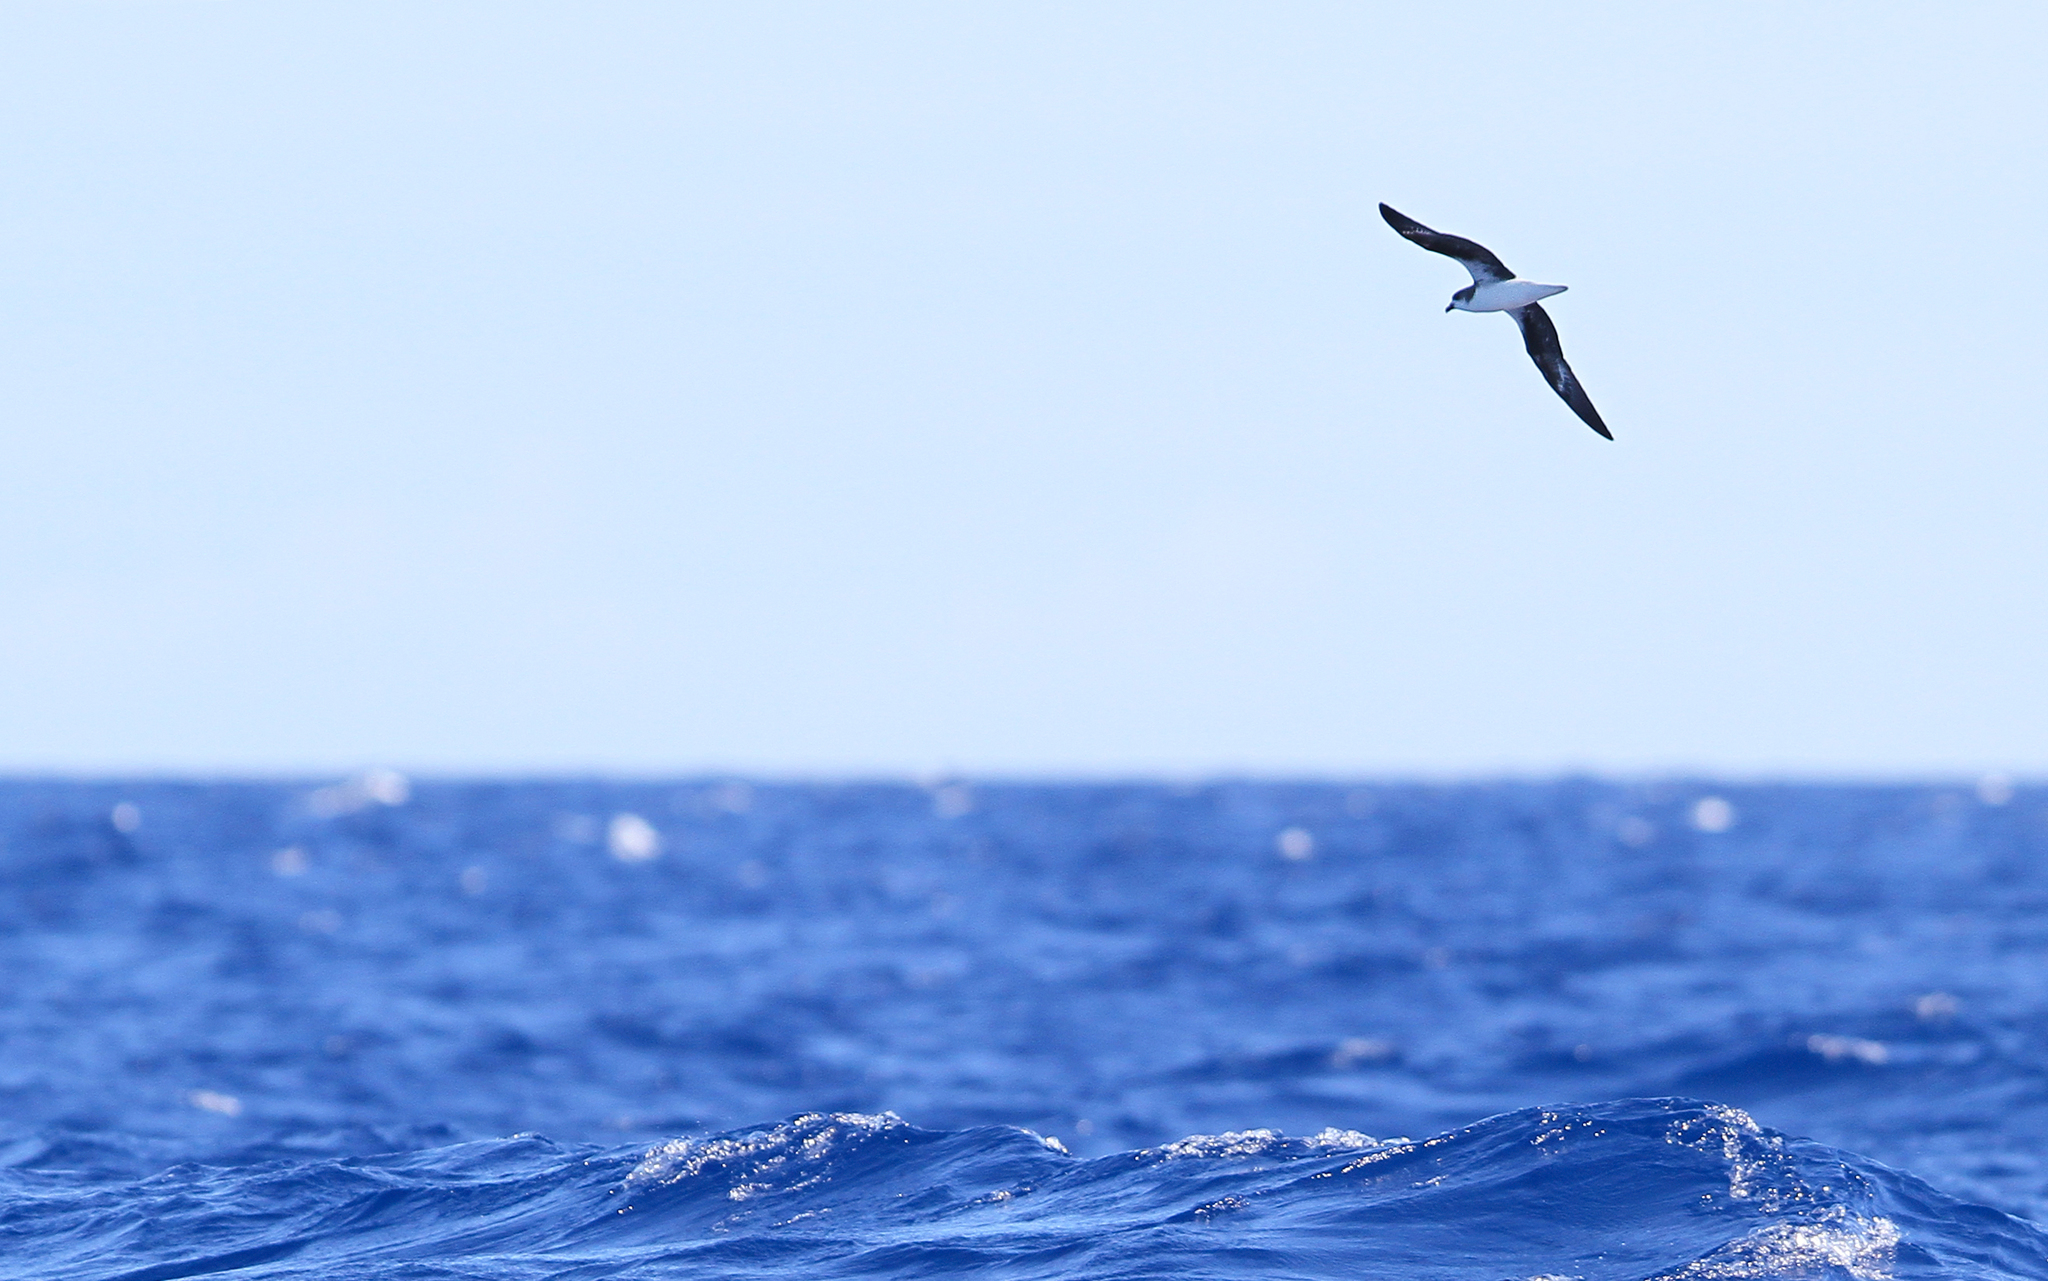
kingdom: Animalia
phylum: Chordata
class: Aves
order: Procellariiformes
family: Procellariidae
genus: Pterodroma
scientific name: Pterodroma feae
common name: Fea's petrel
